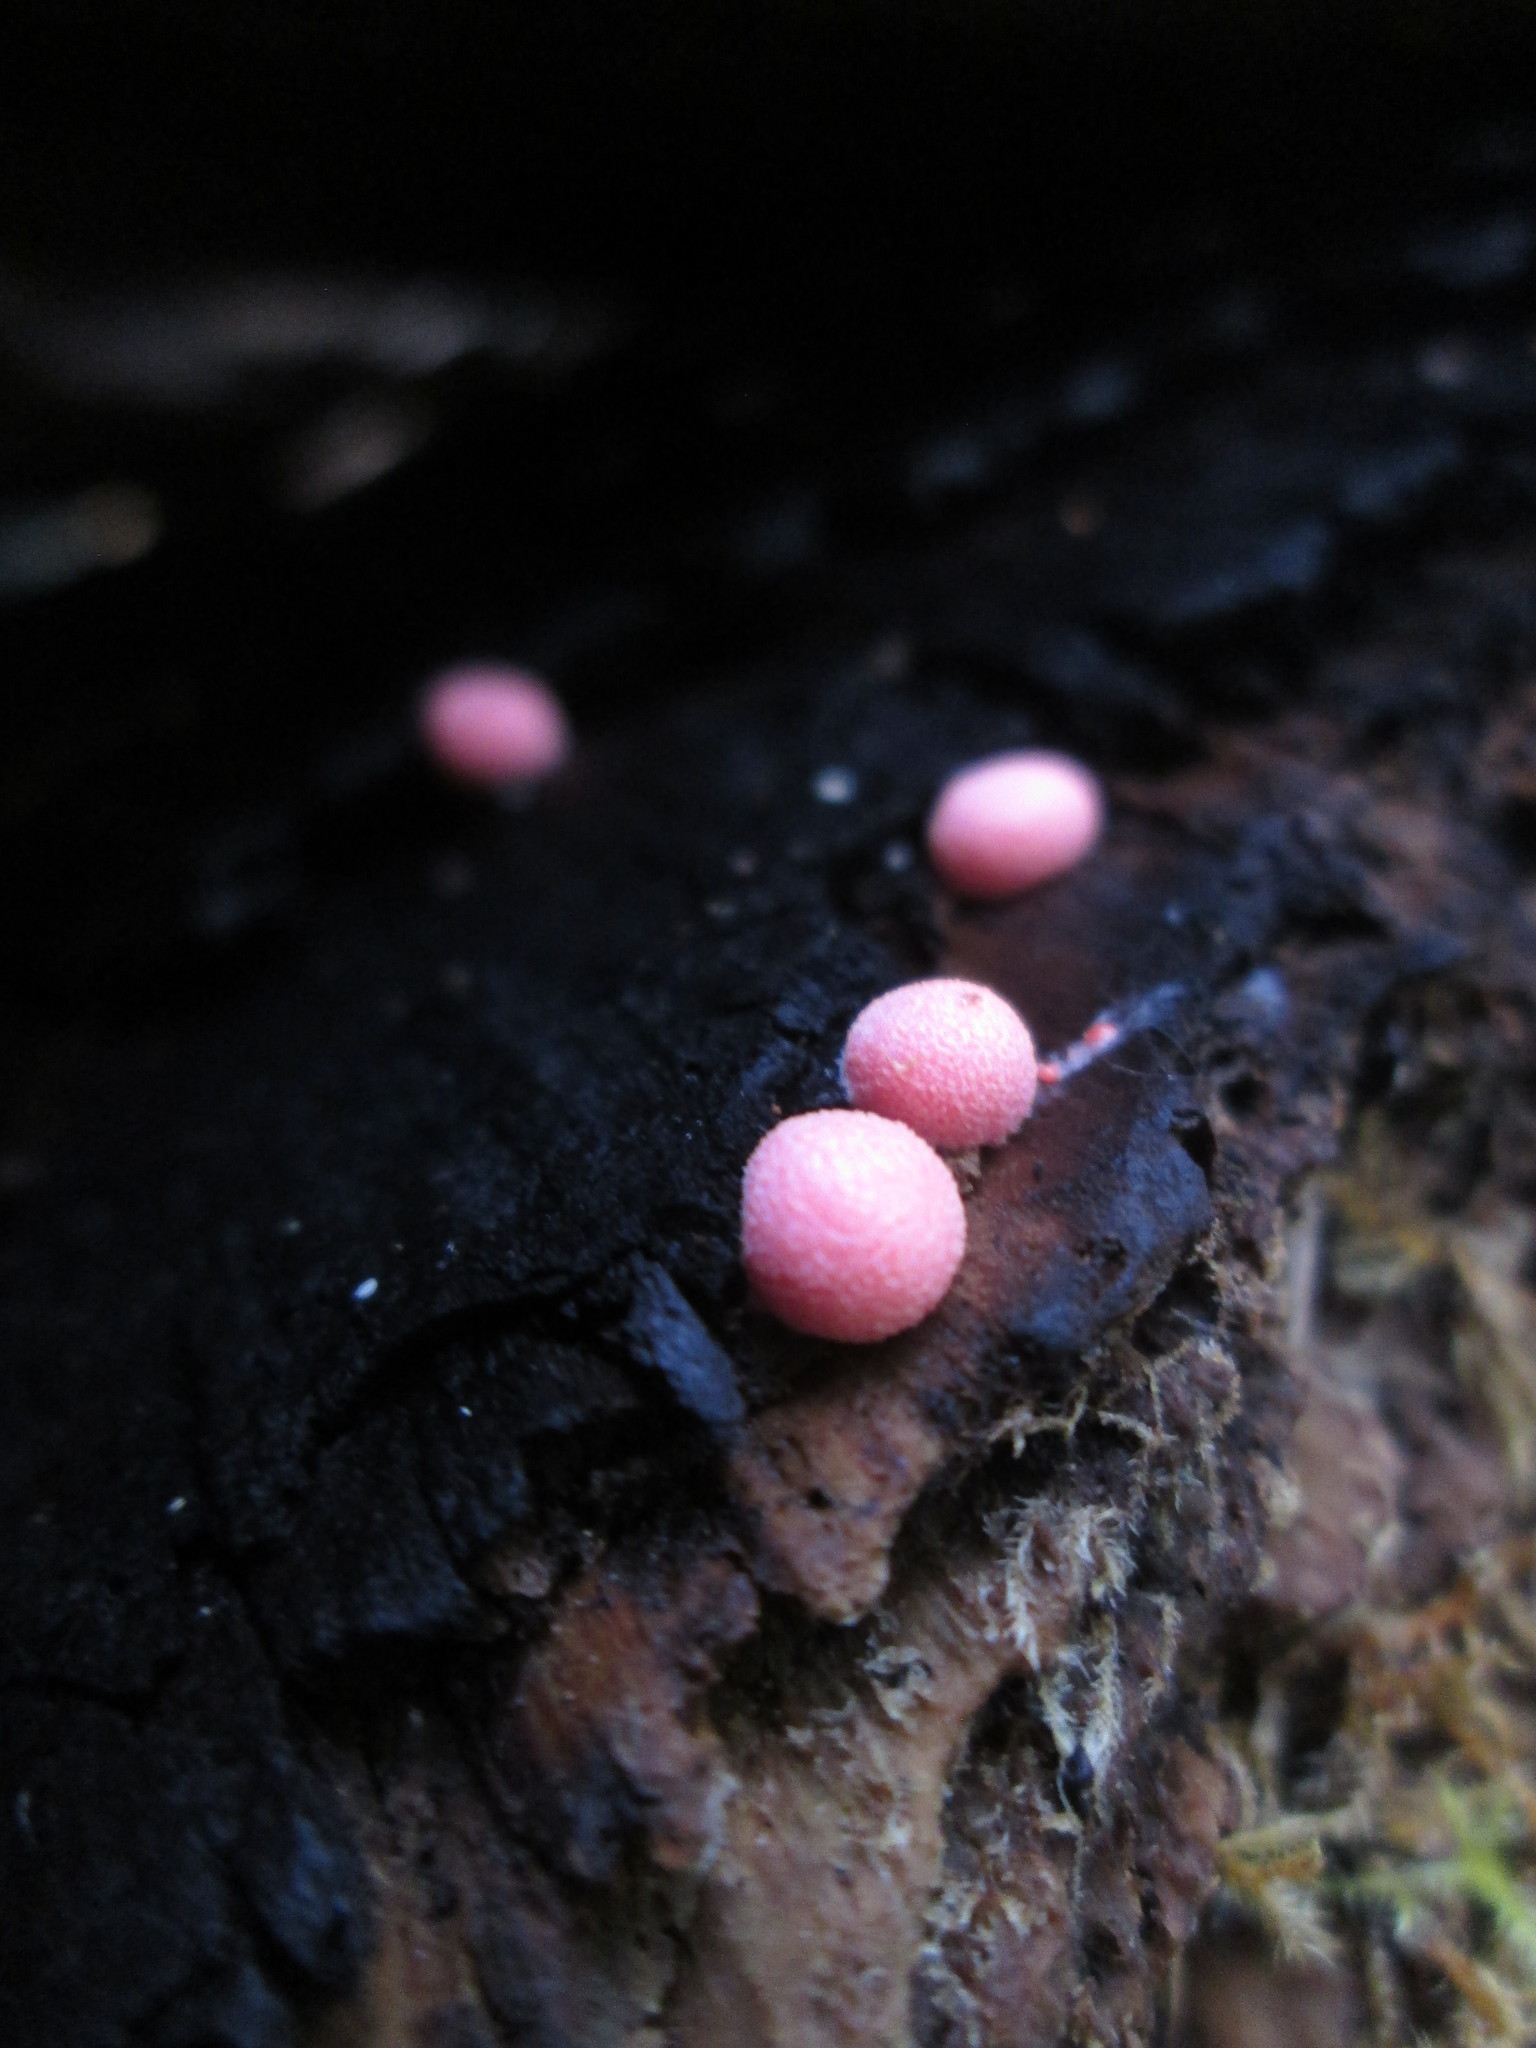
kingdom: Protozoa
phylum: Mycetozoa
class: Myxomycetes
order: Cribrariales
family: Tubiferaceae
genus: Lycogala
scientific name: Lycogala epidendrum
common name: Wolf's milk
